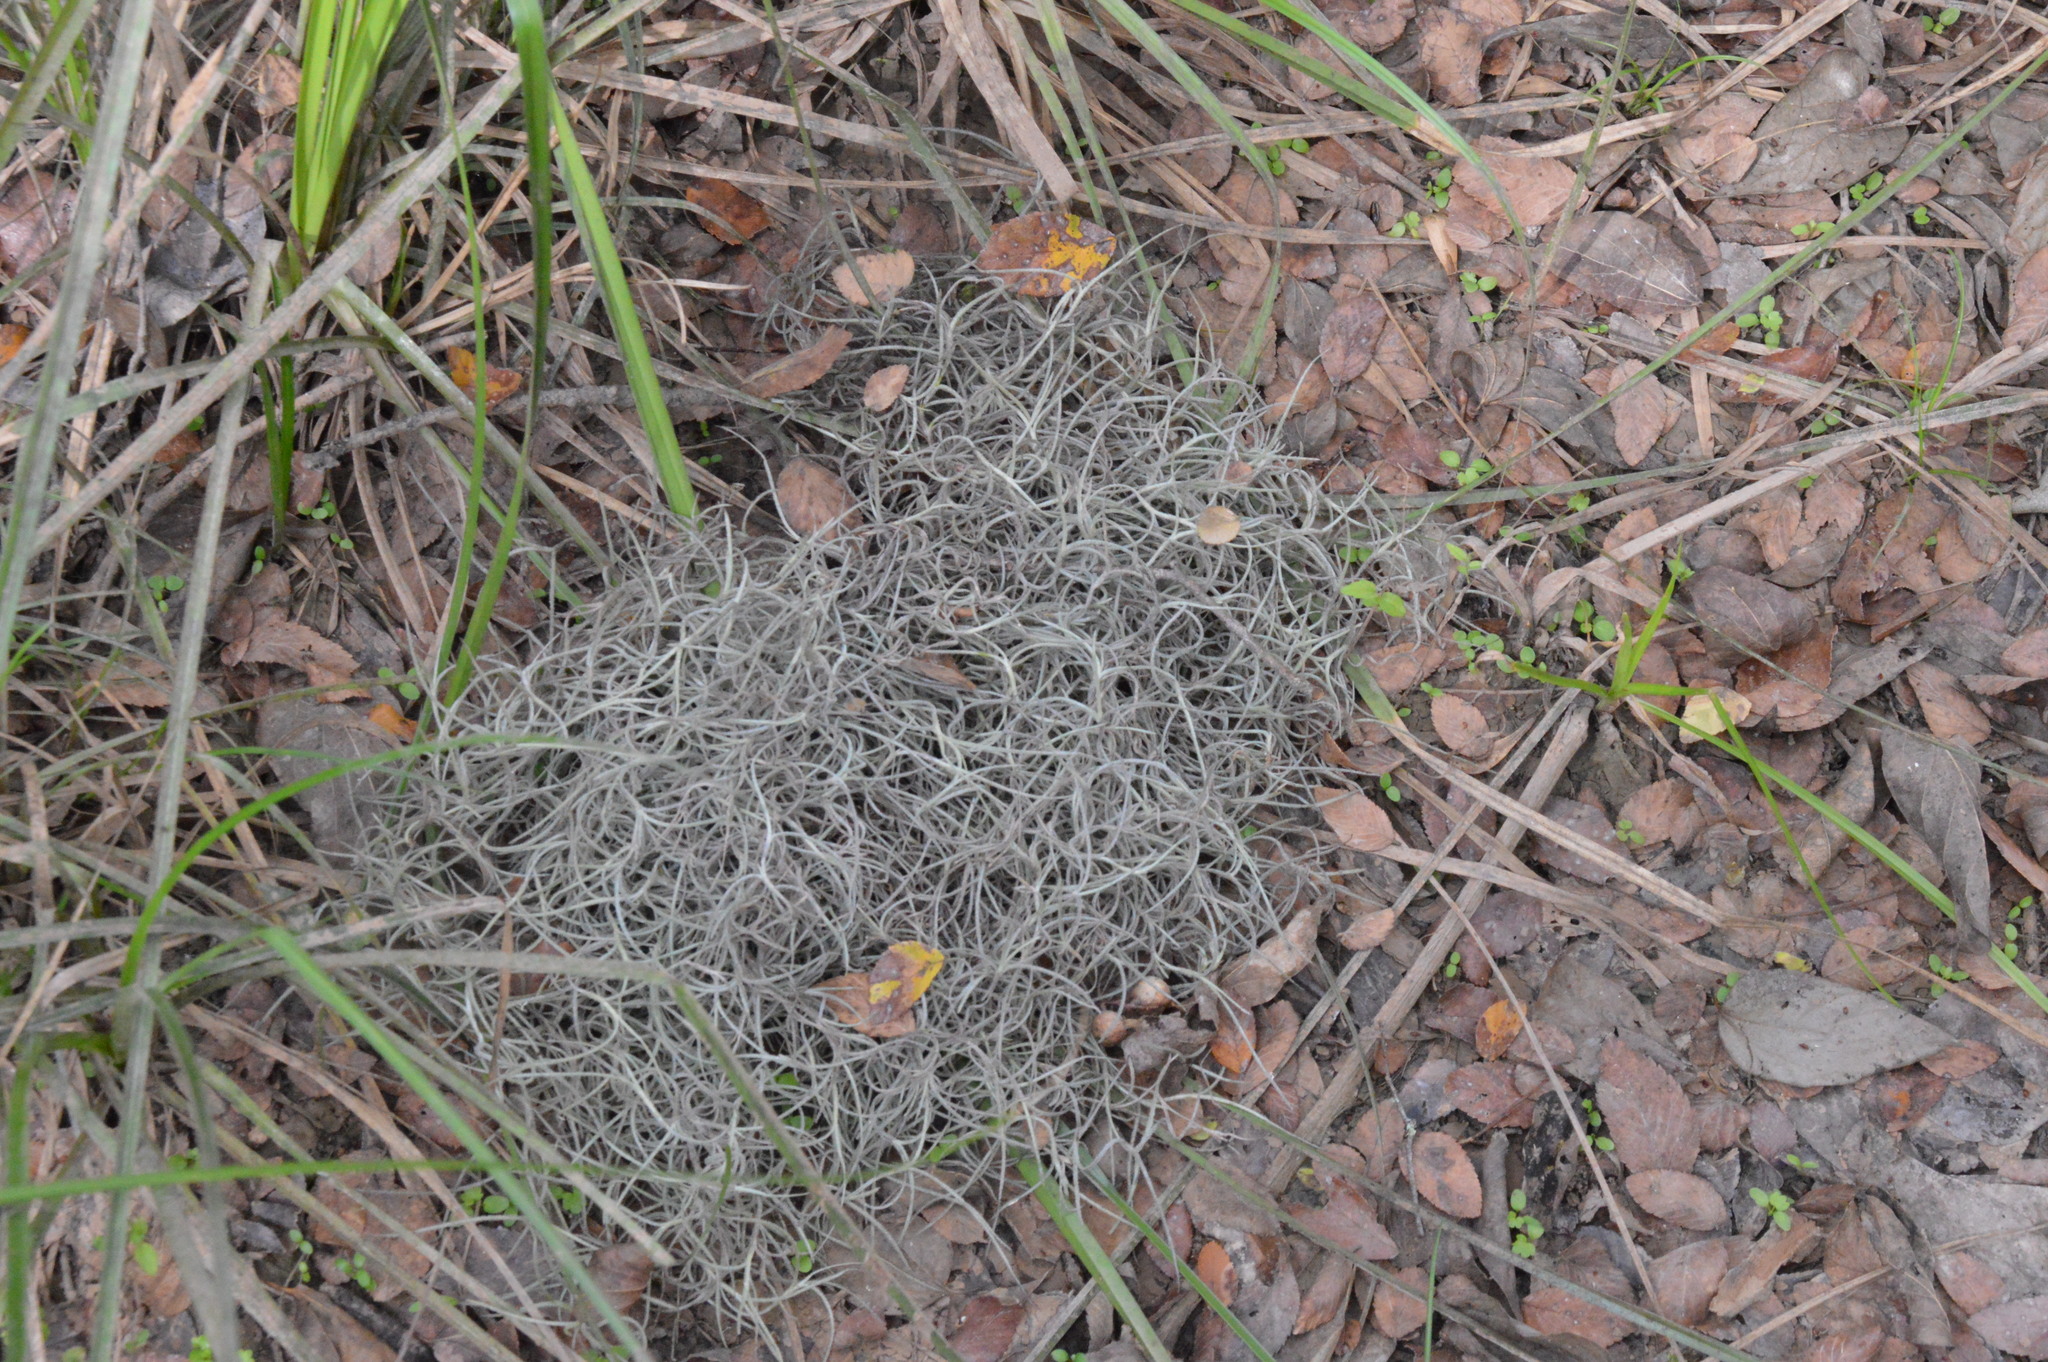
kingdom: Plantae
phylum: Tracheophyta
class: Liliopsida
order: Poales
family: Bromeliaceae
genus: Tillandsia
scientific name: Tillandsia usneoides
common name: Spanish moss
